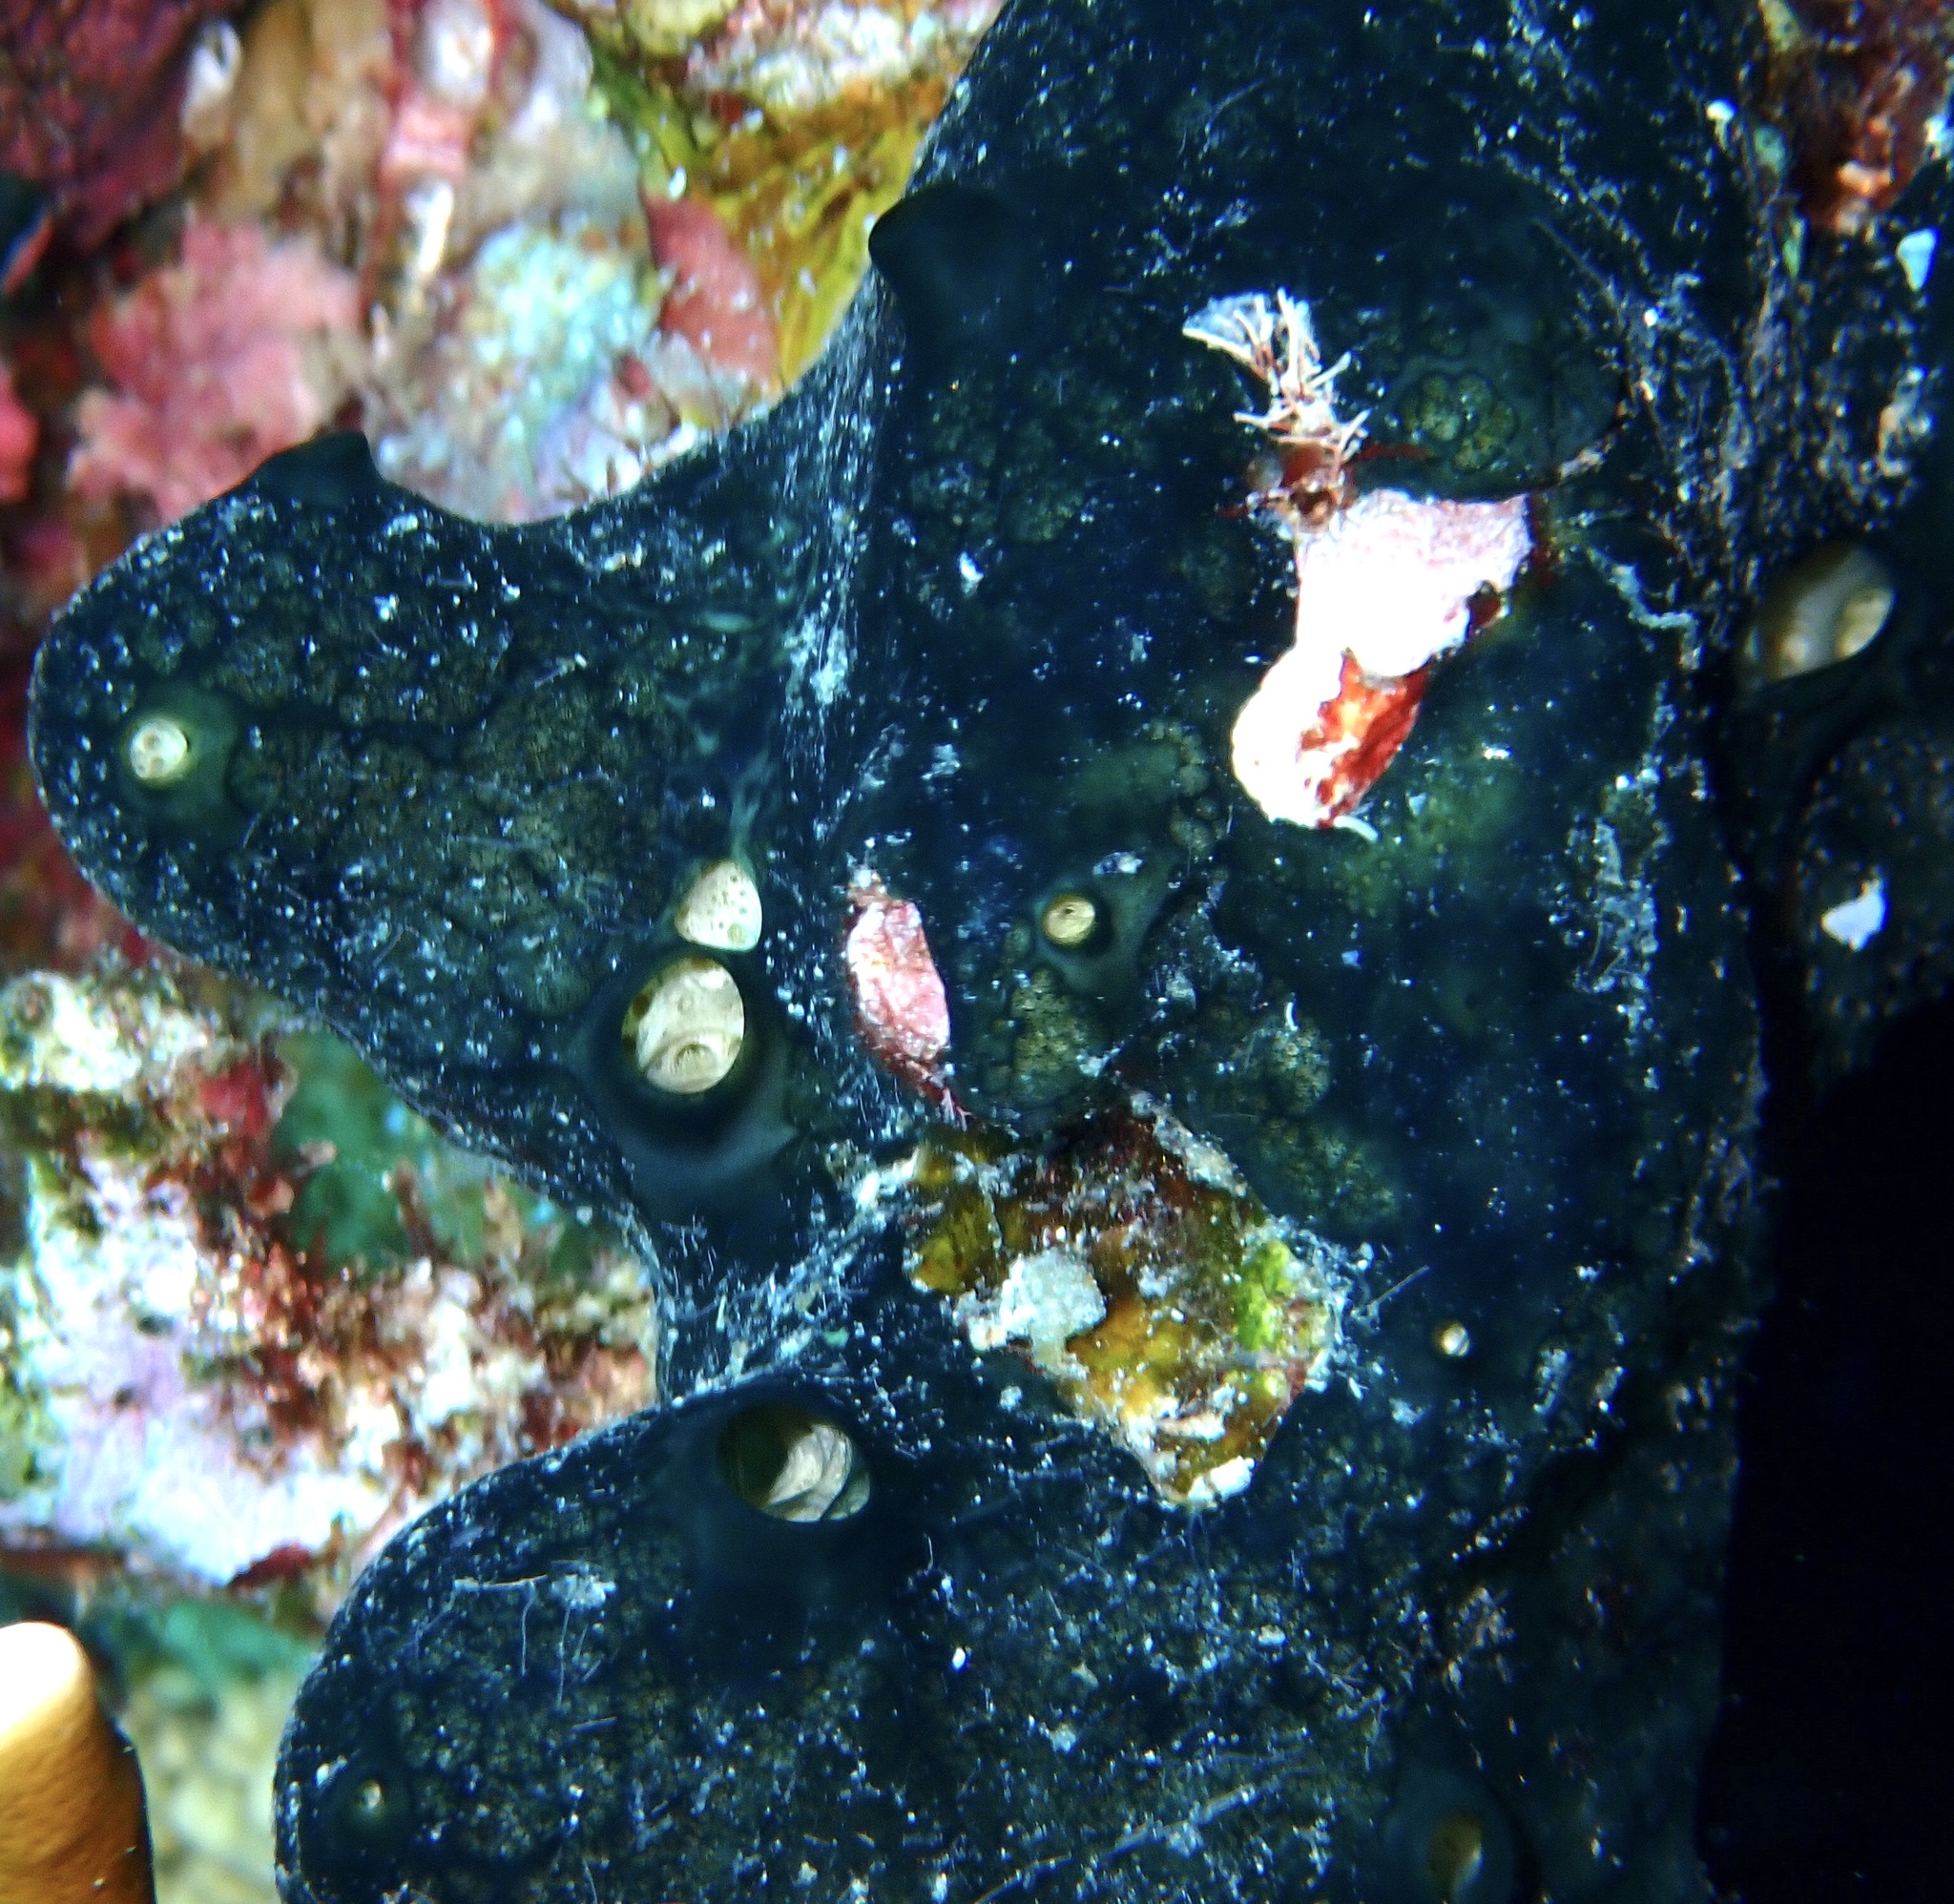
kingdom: Animalia
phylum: Porifera
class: Demospongiae
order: Poecilosclerida
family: Hymedesmiidae
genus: Hemimycale
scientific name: Hemimycale arabica
